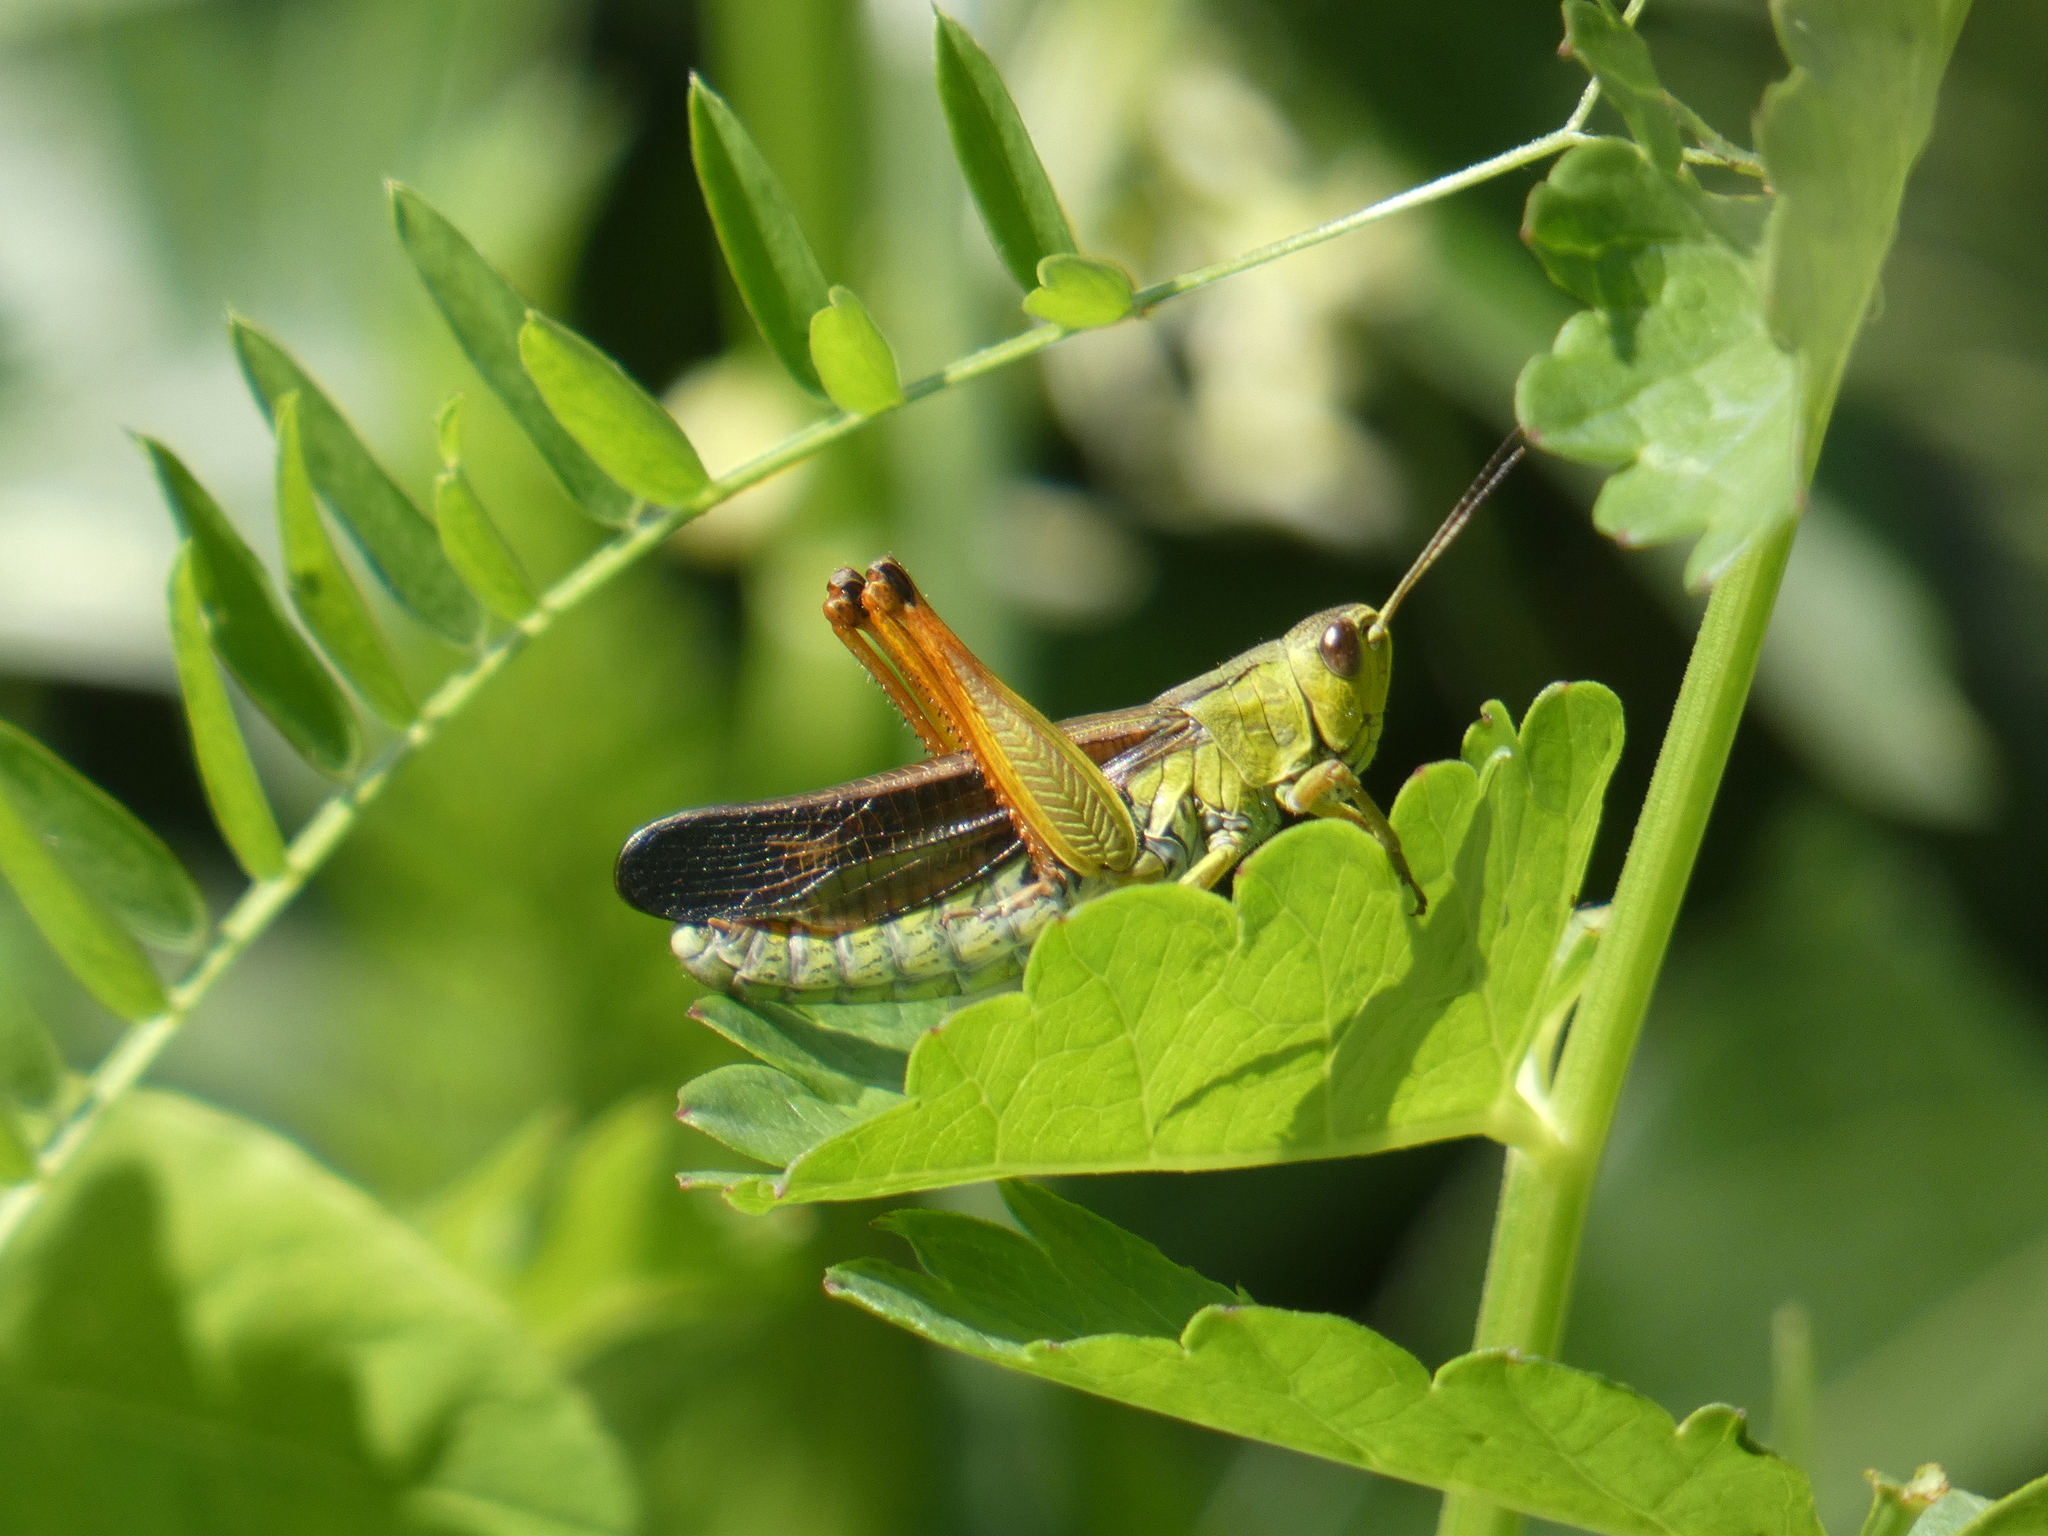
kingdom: Animalia
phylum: Arthropoda
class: Insecta
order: Orthoptera
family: Acrididae
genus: Stauroderus
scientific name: Stauroderus scalaris
